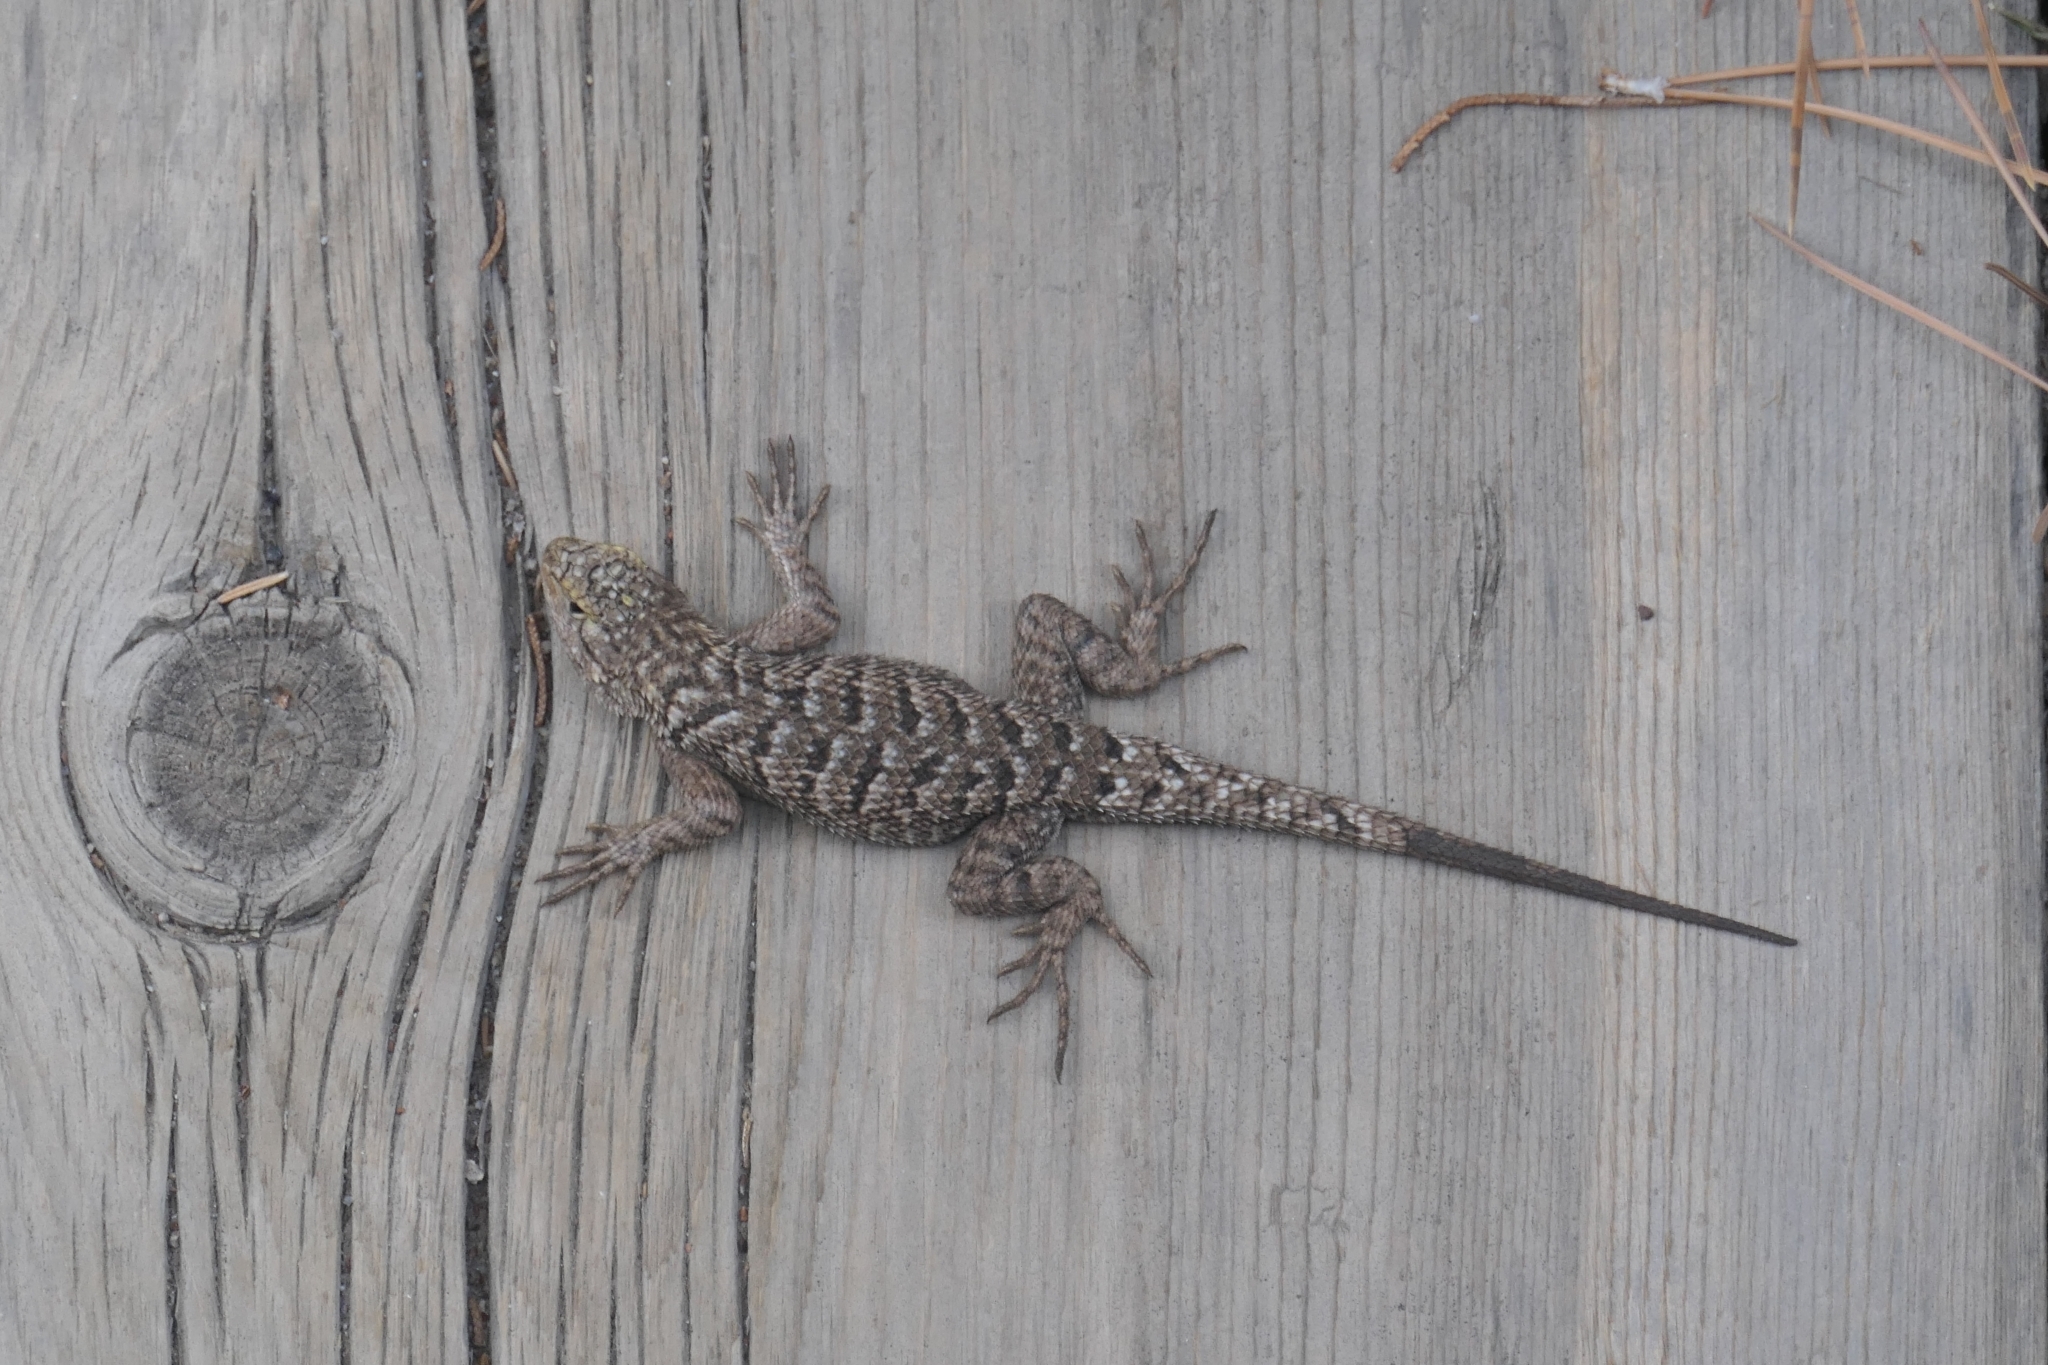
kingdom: Animalia
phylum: Chordata
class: Squamata
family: Phrynosomatidae
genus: Sceloporus
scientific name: Sceloporus occidentalis
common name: Western fence lizard
